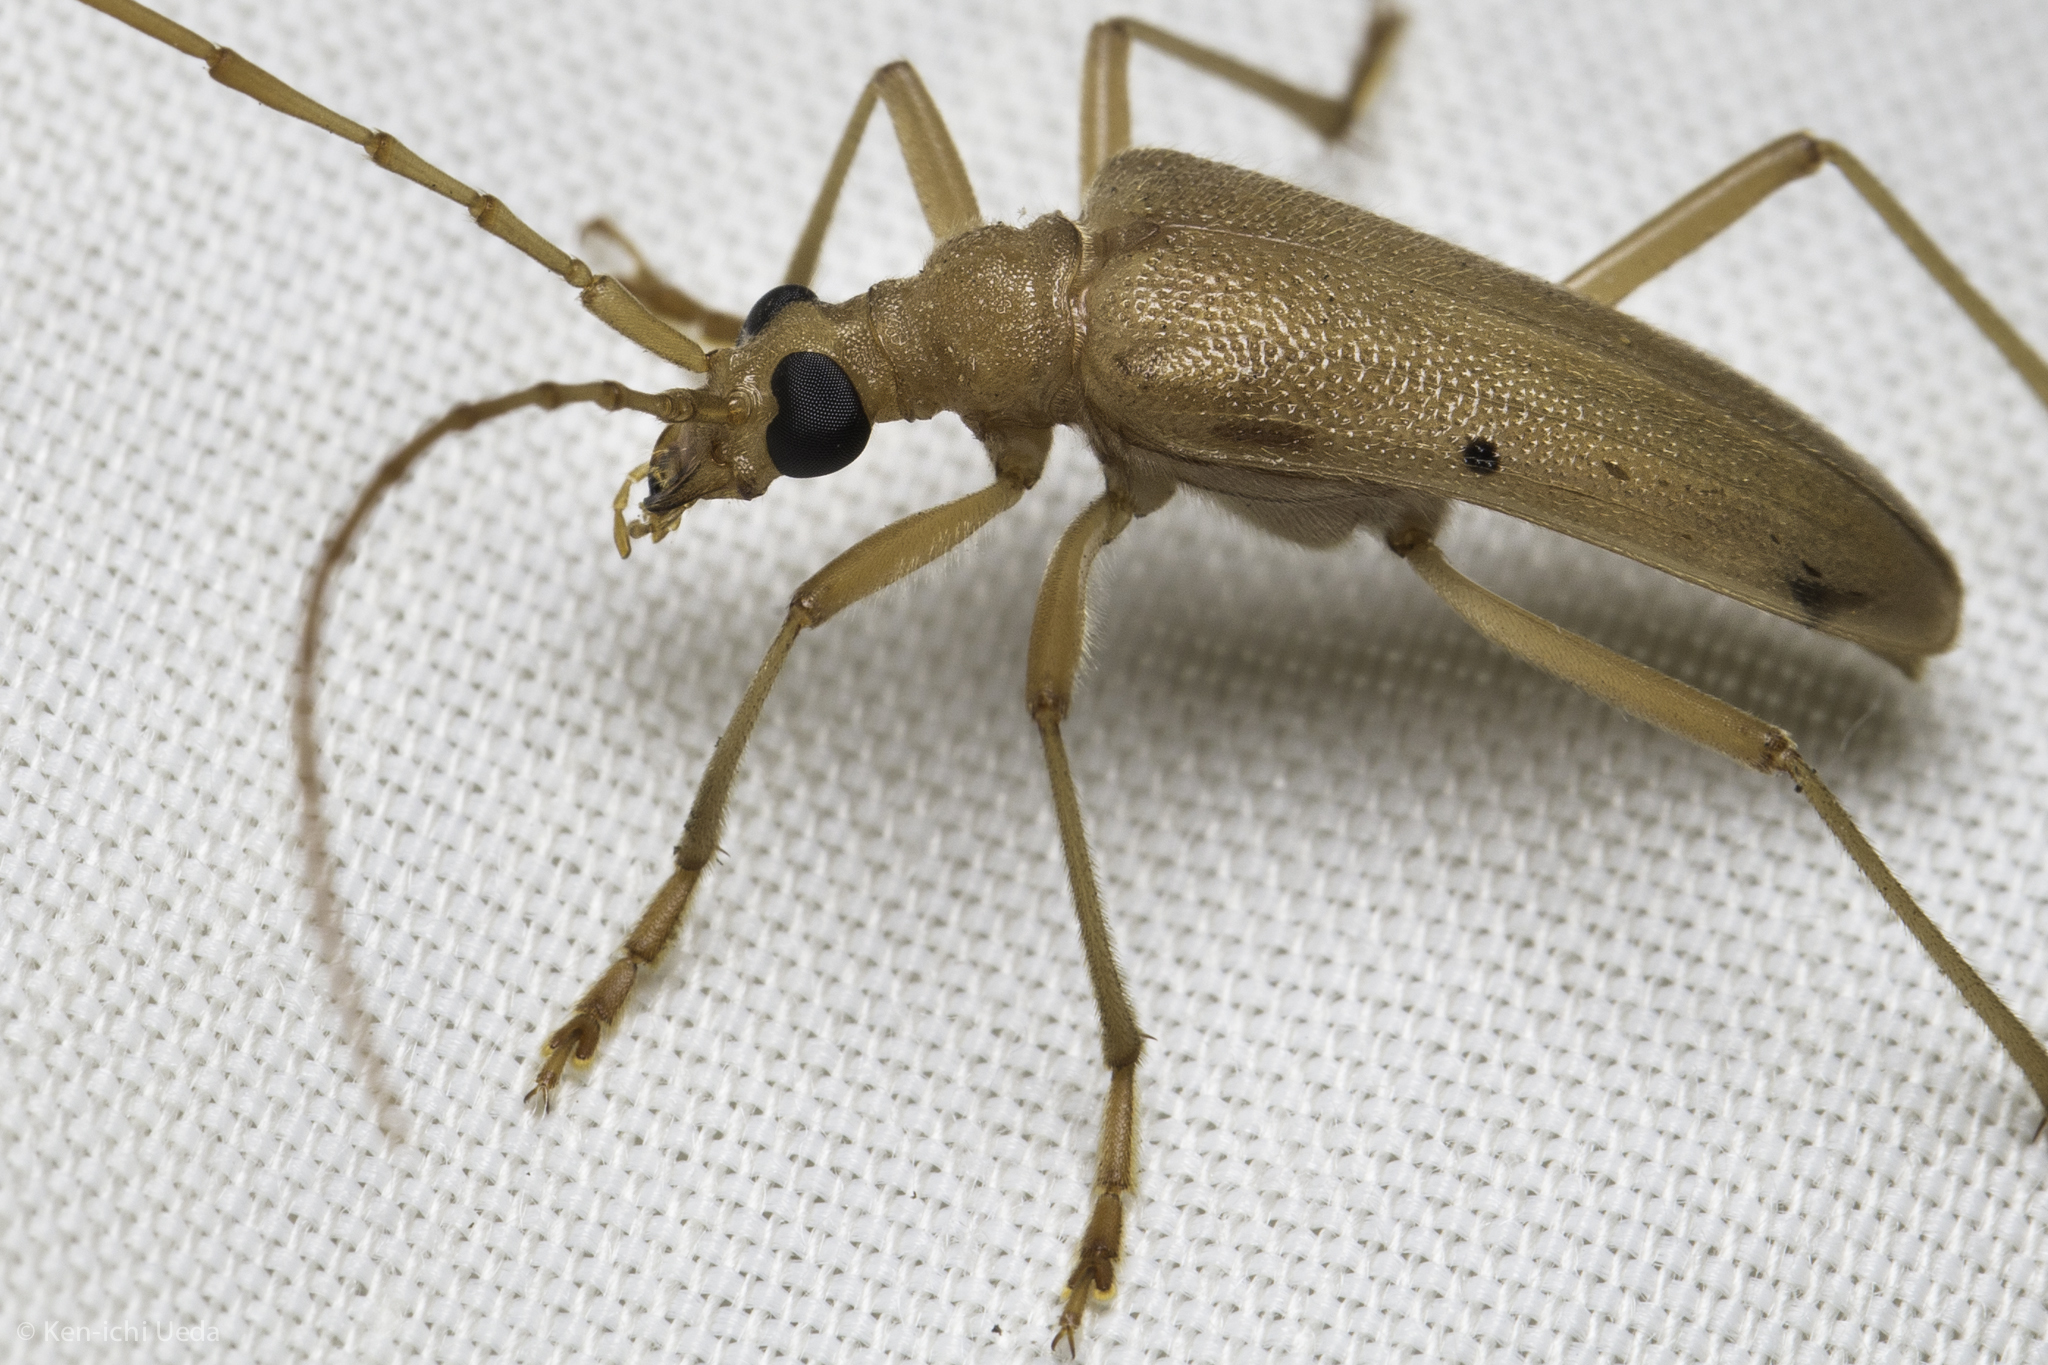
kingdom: Animalia
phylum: Arthropoda
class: Insecta
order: Coleoptera
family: Cerambycidae
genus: Centrodera
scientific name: Centrodera spurca
